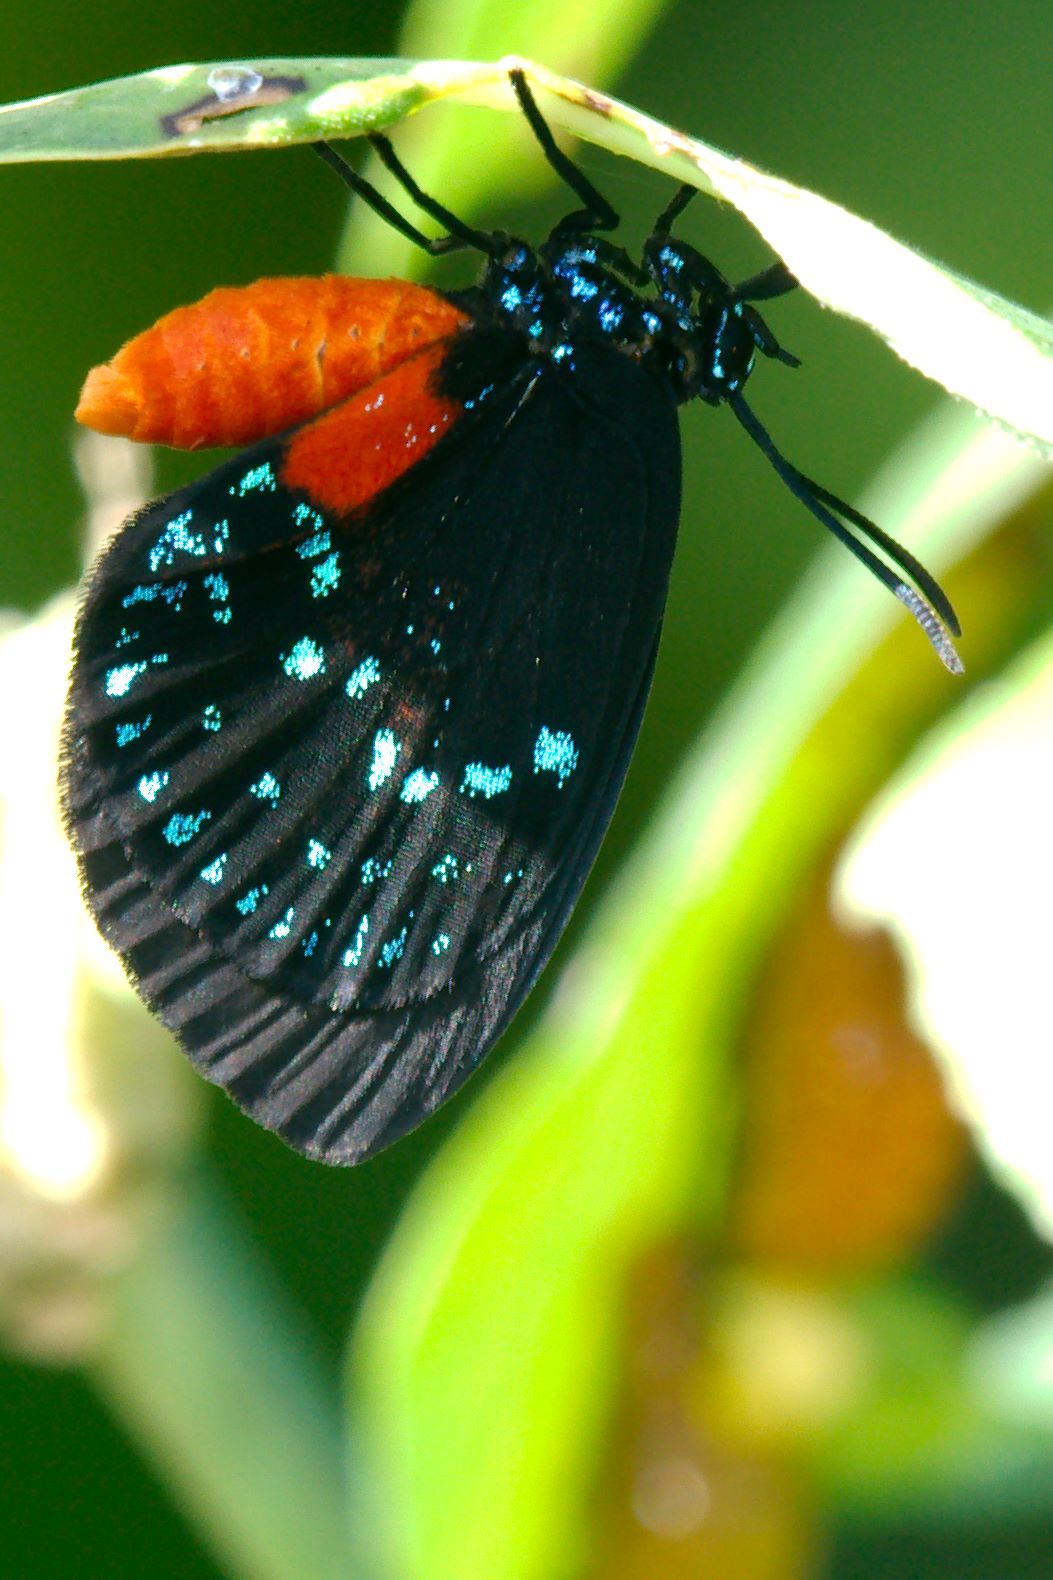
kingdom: Animalia
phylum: Arthropoda
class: Insecta
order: Lepidoptera
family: Lycaenidae
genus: Eumaeus
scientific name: Eumaeus atala
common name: Atala
